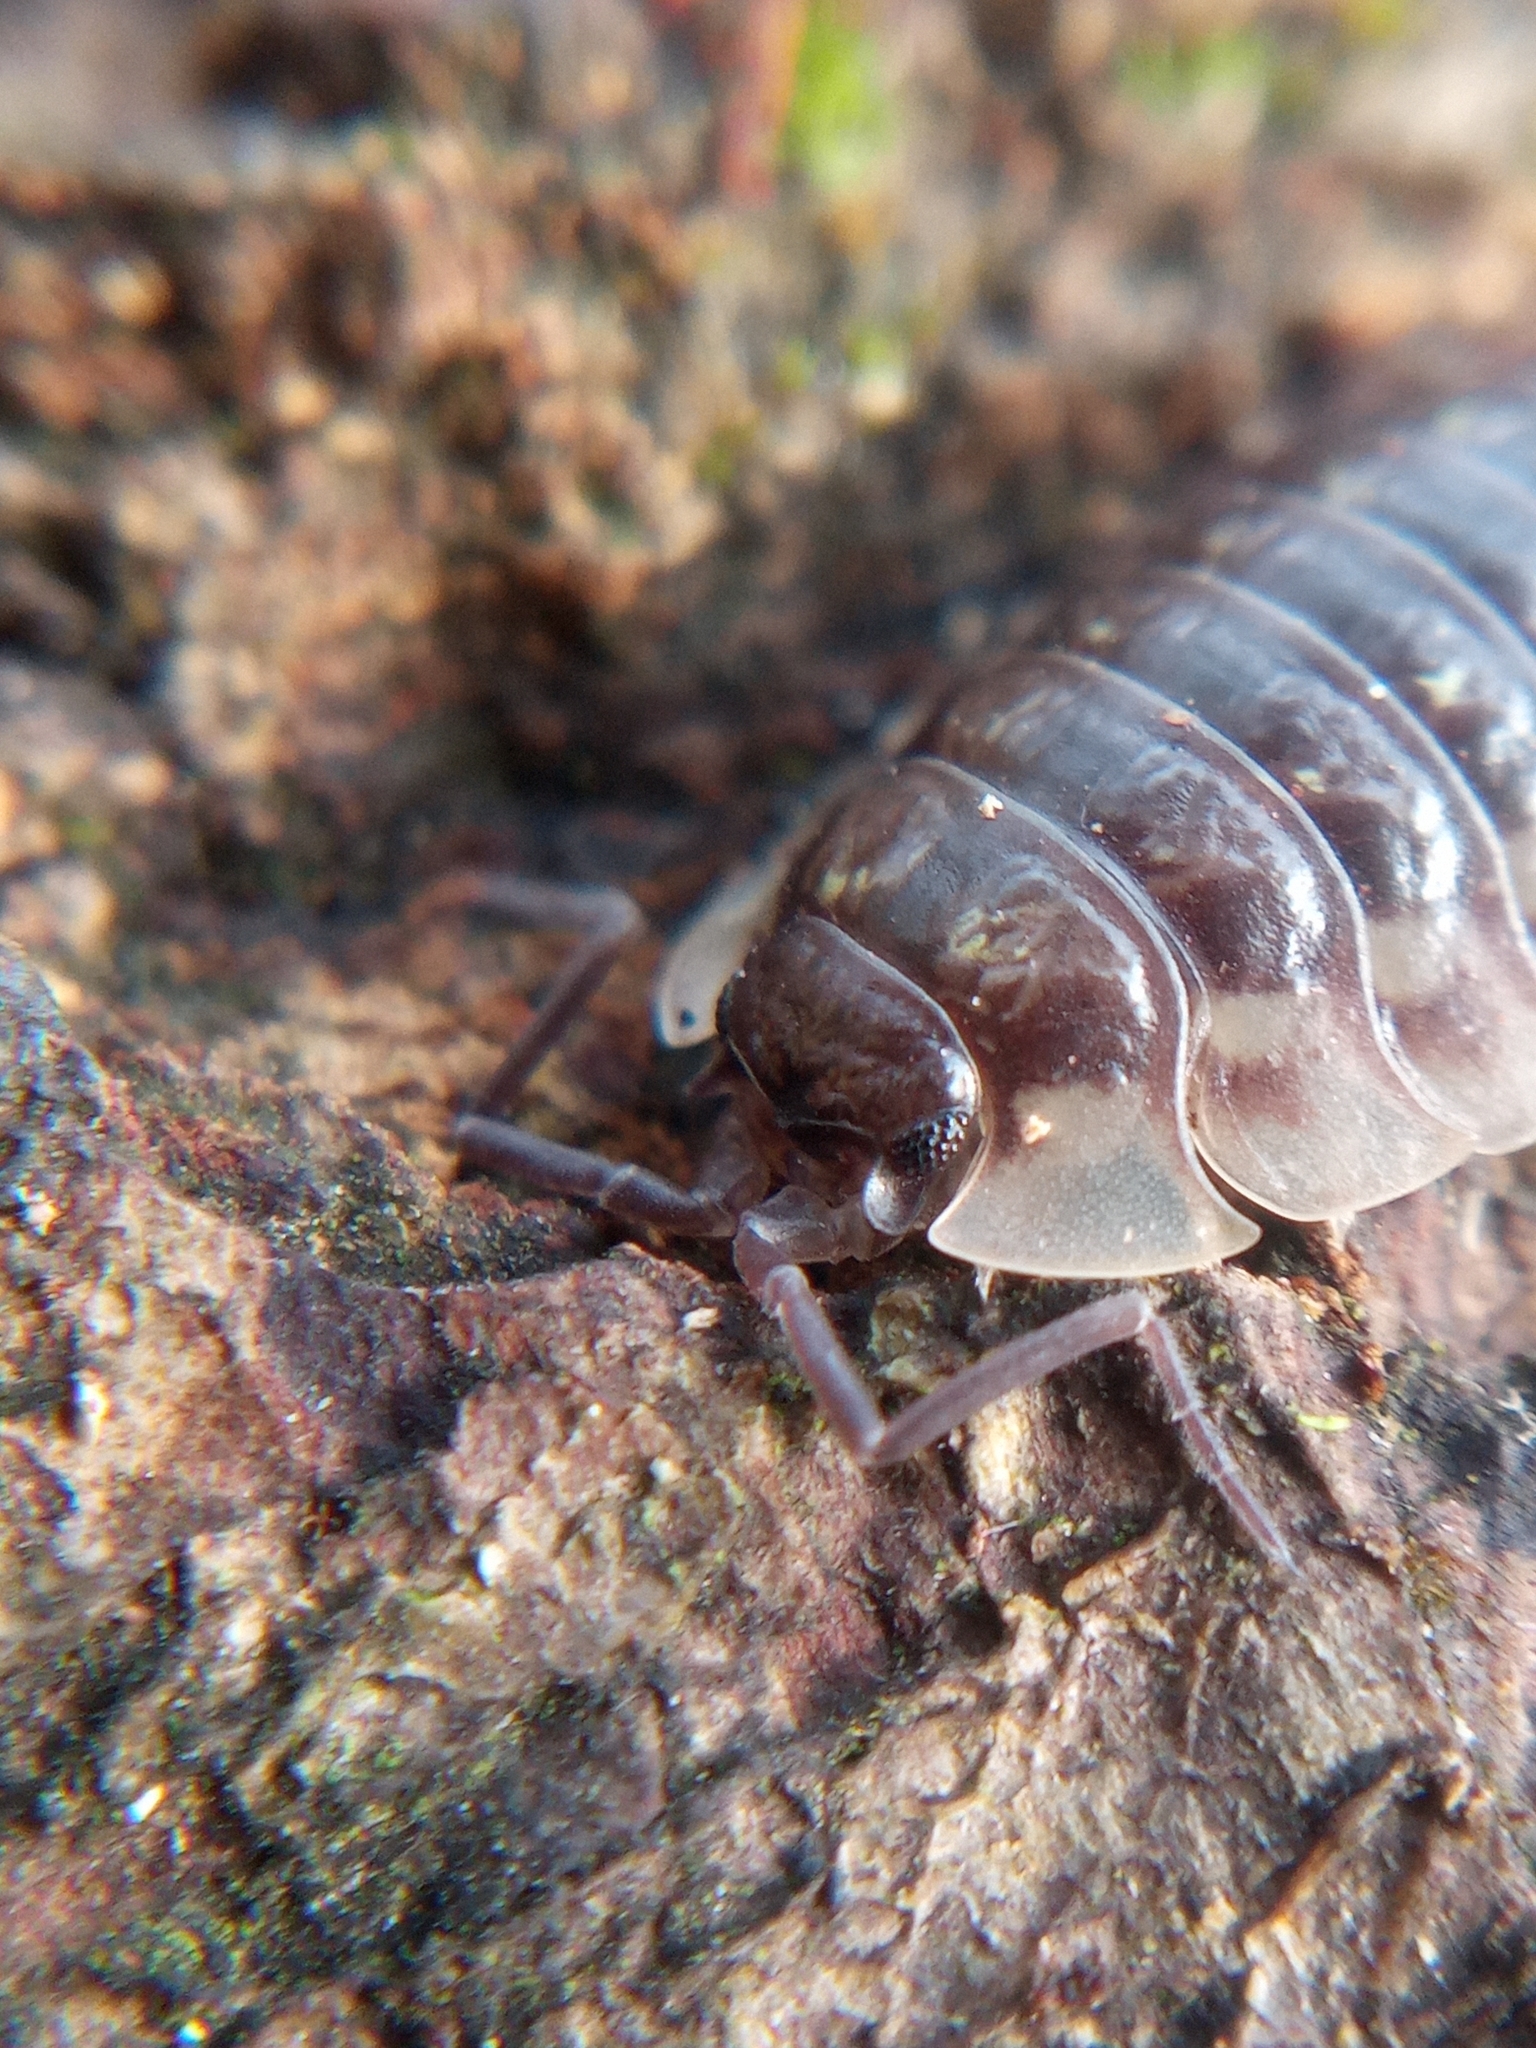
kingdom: Animalia
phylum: Arthropoda
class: Malacostraca
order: Isopoda
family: Oniscidae
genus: Oniscus
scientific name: Oniscus asellus
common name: Common shiny woodlouse
